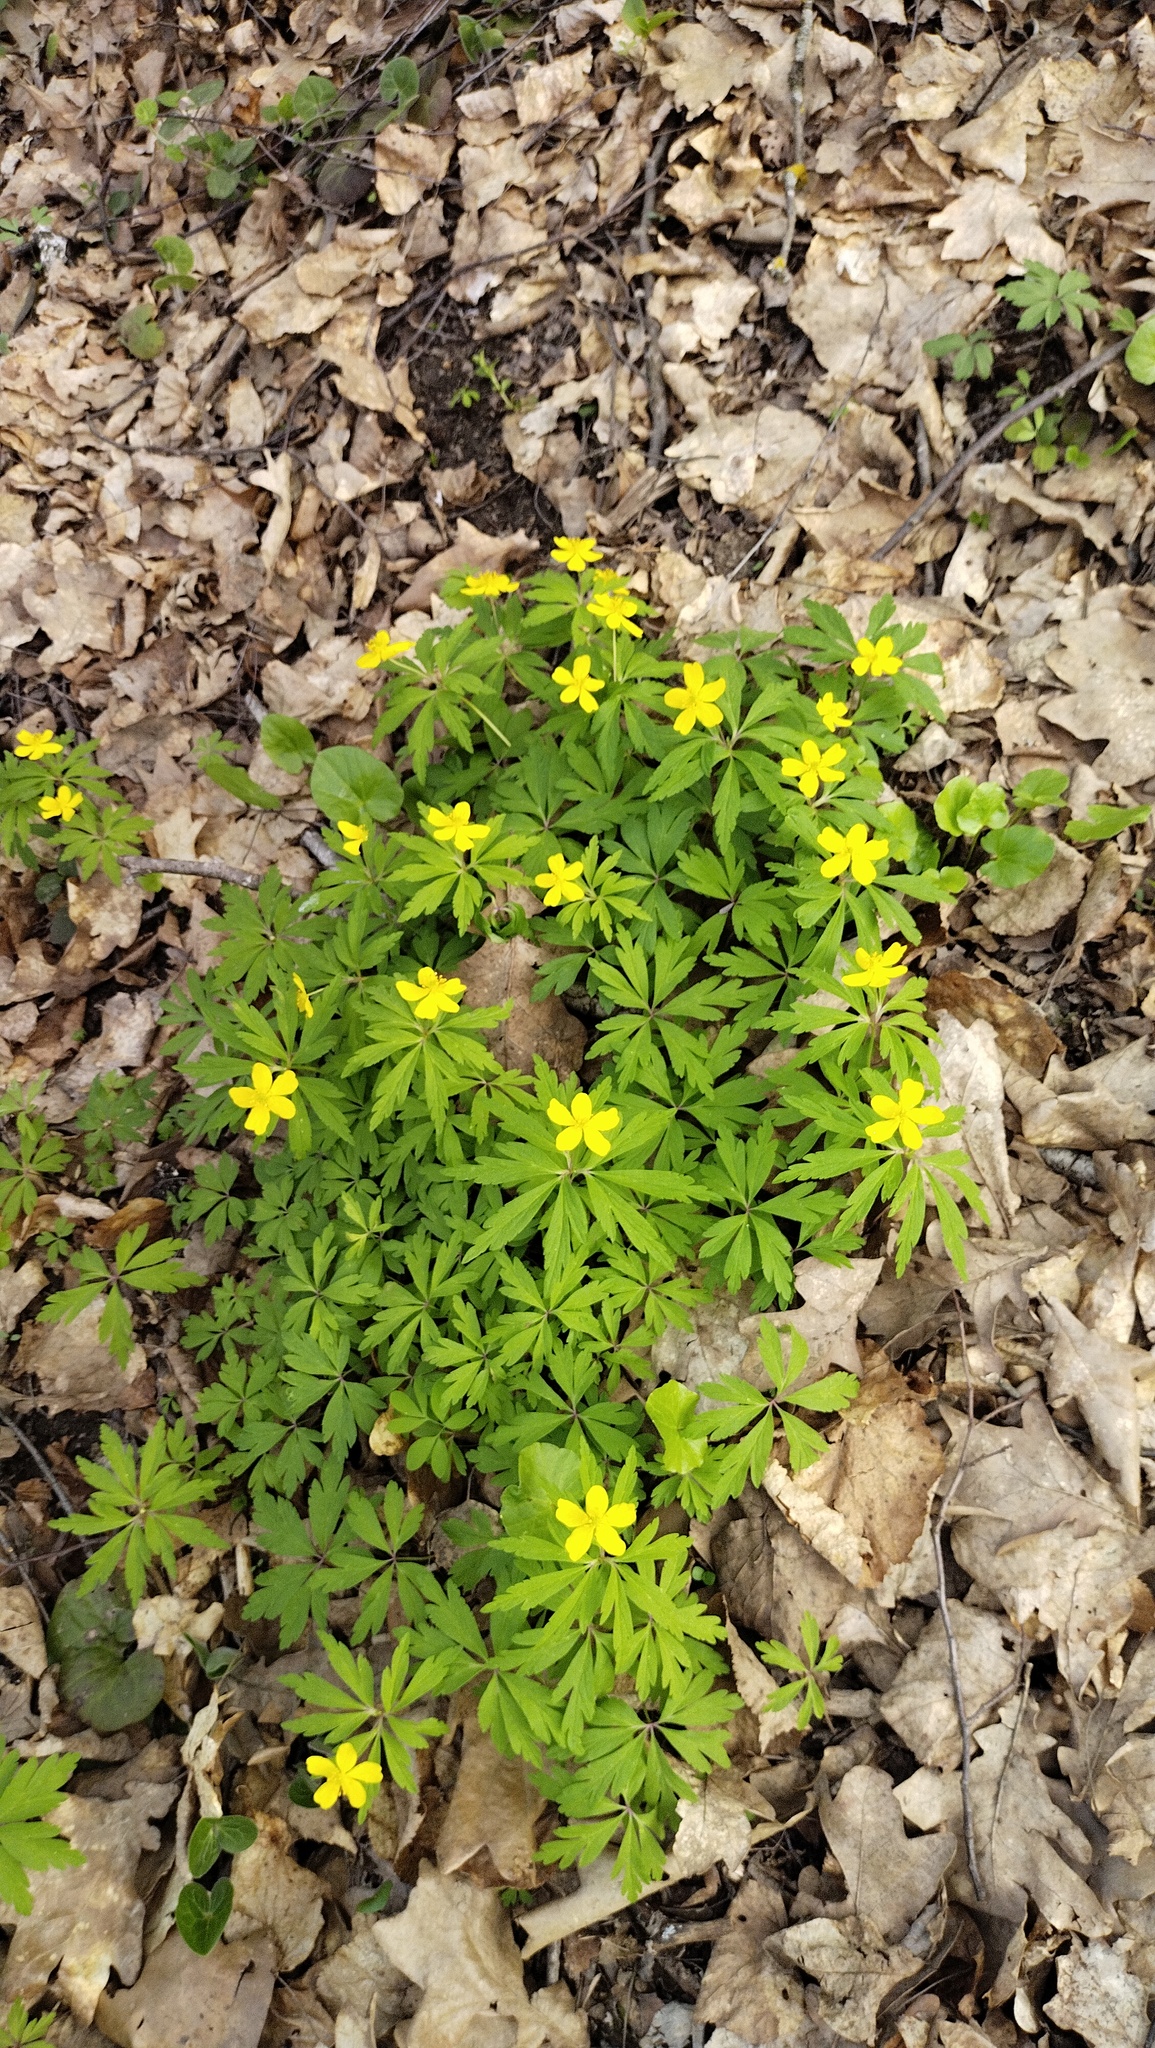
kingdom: Plantae
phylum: Tracheophyta
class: Magnoliopsida
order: Ranunculales
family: Ranunculaceae
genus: Anemone
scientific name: Anemone ranunculoides
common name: Yellow anemone
